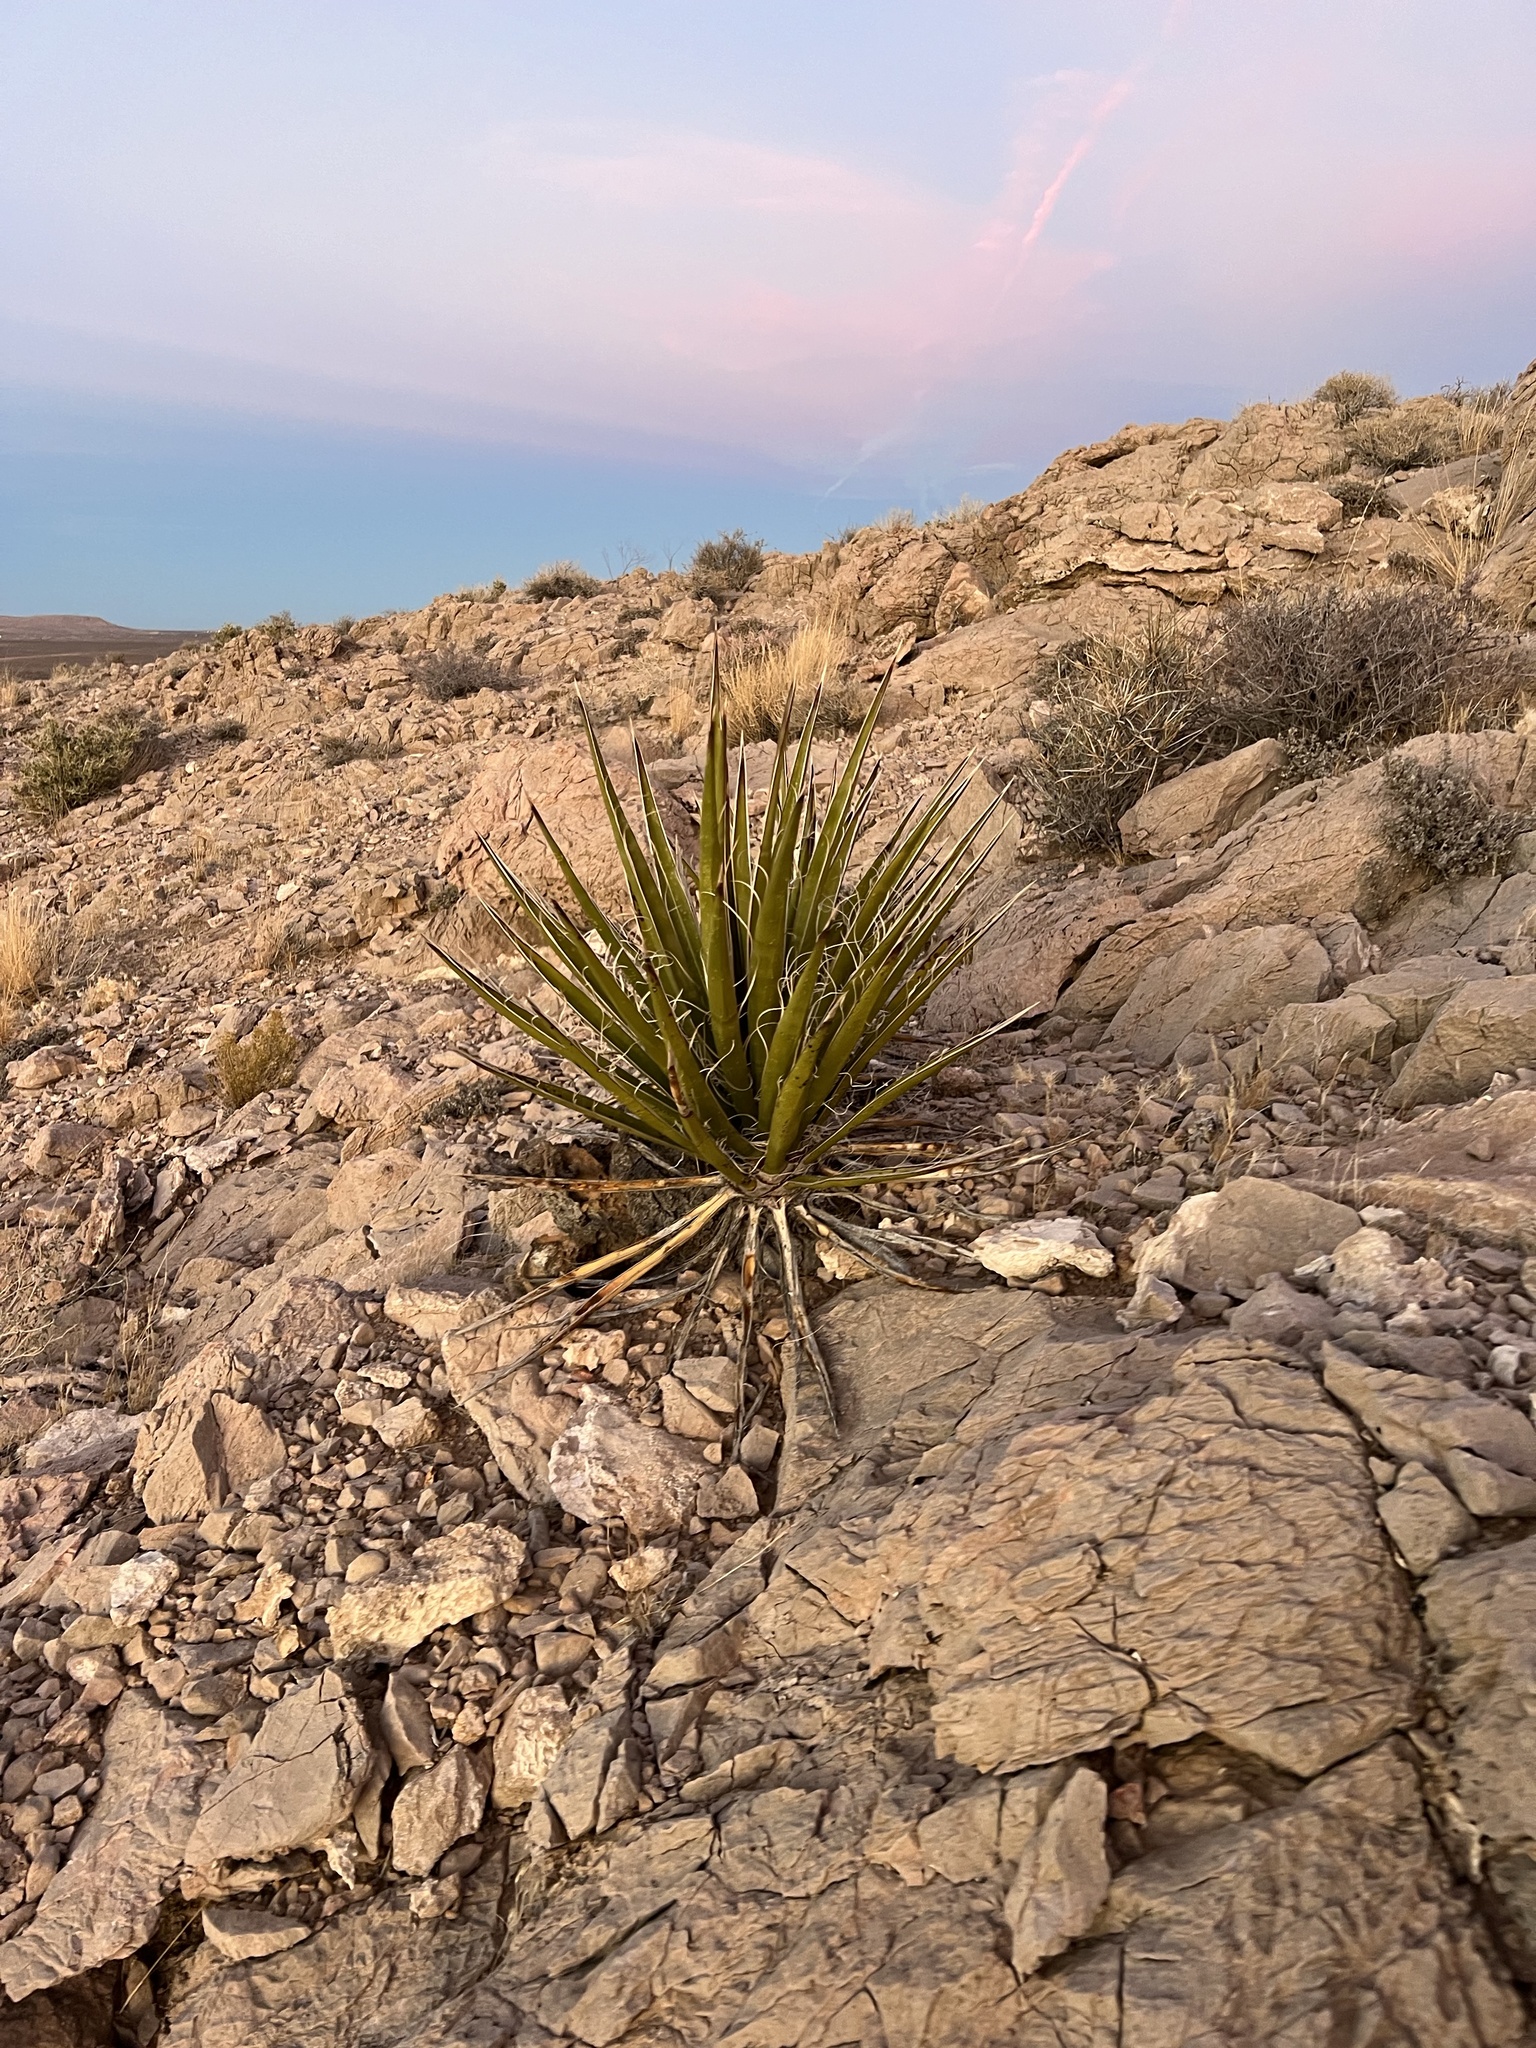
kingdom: Plantae
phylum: Tracheophyta
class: Liliopsida
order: Asparagales
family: Asparagaceae
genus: Yucca
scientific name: Yucca schidigera
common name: Mojave yucca
